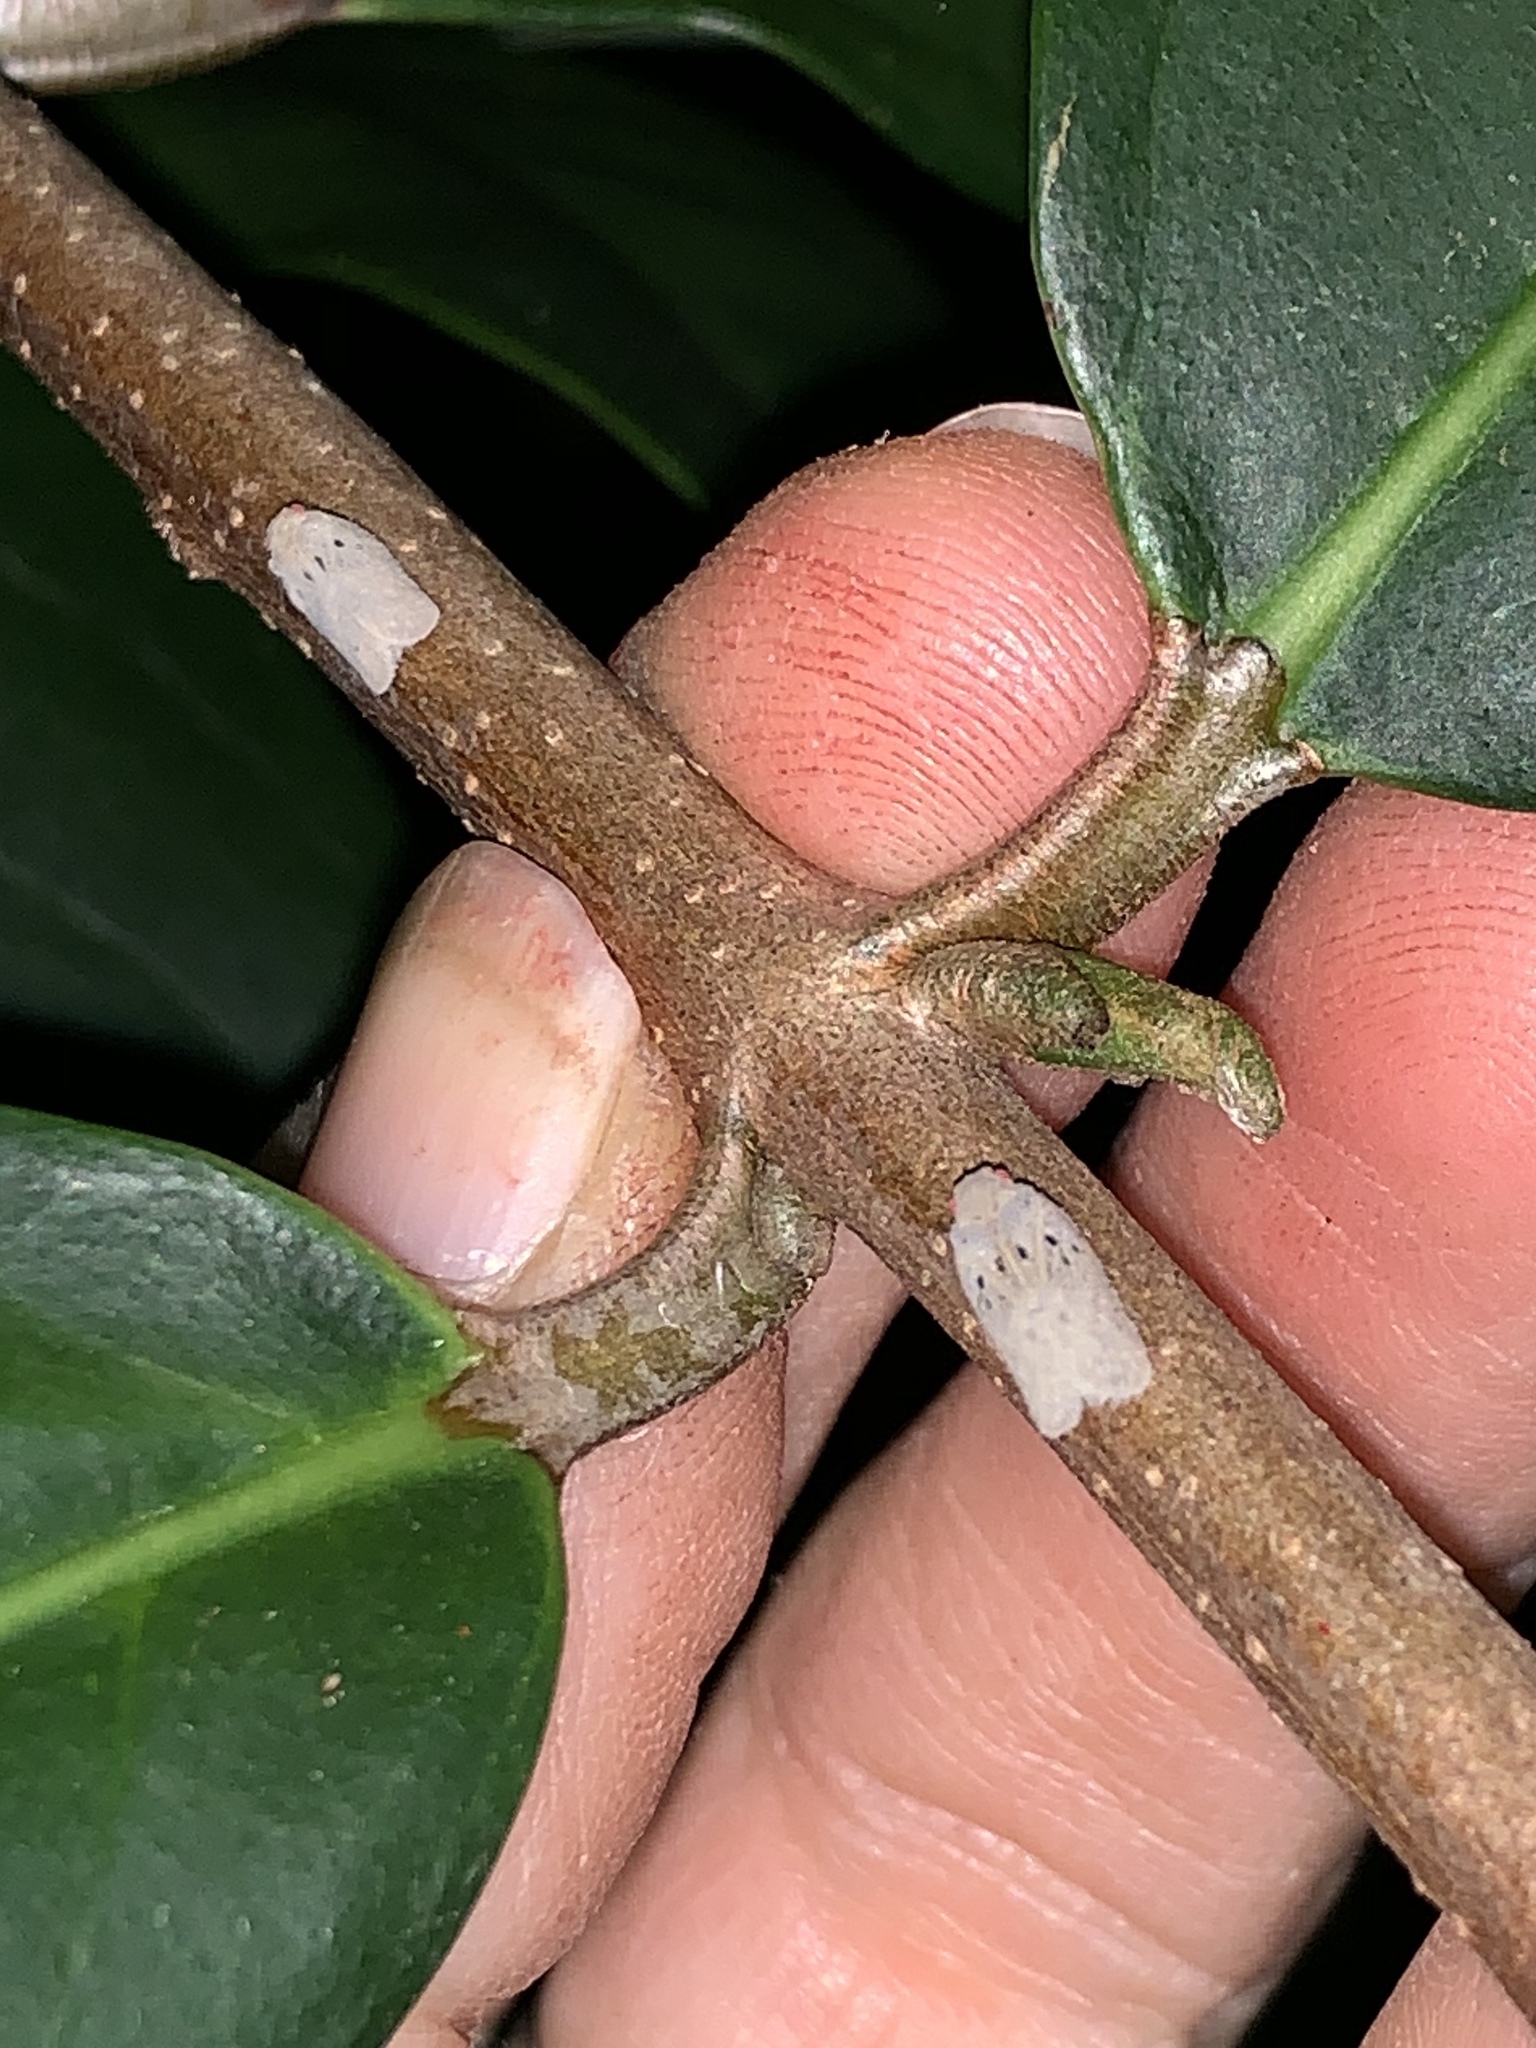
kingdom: Animalia
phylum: Arthropoda
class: Insecta
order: Hemiptera
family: Flatidae
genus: Melormenis
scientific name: Melormenis basalis
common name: Puerto rican planthopper
